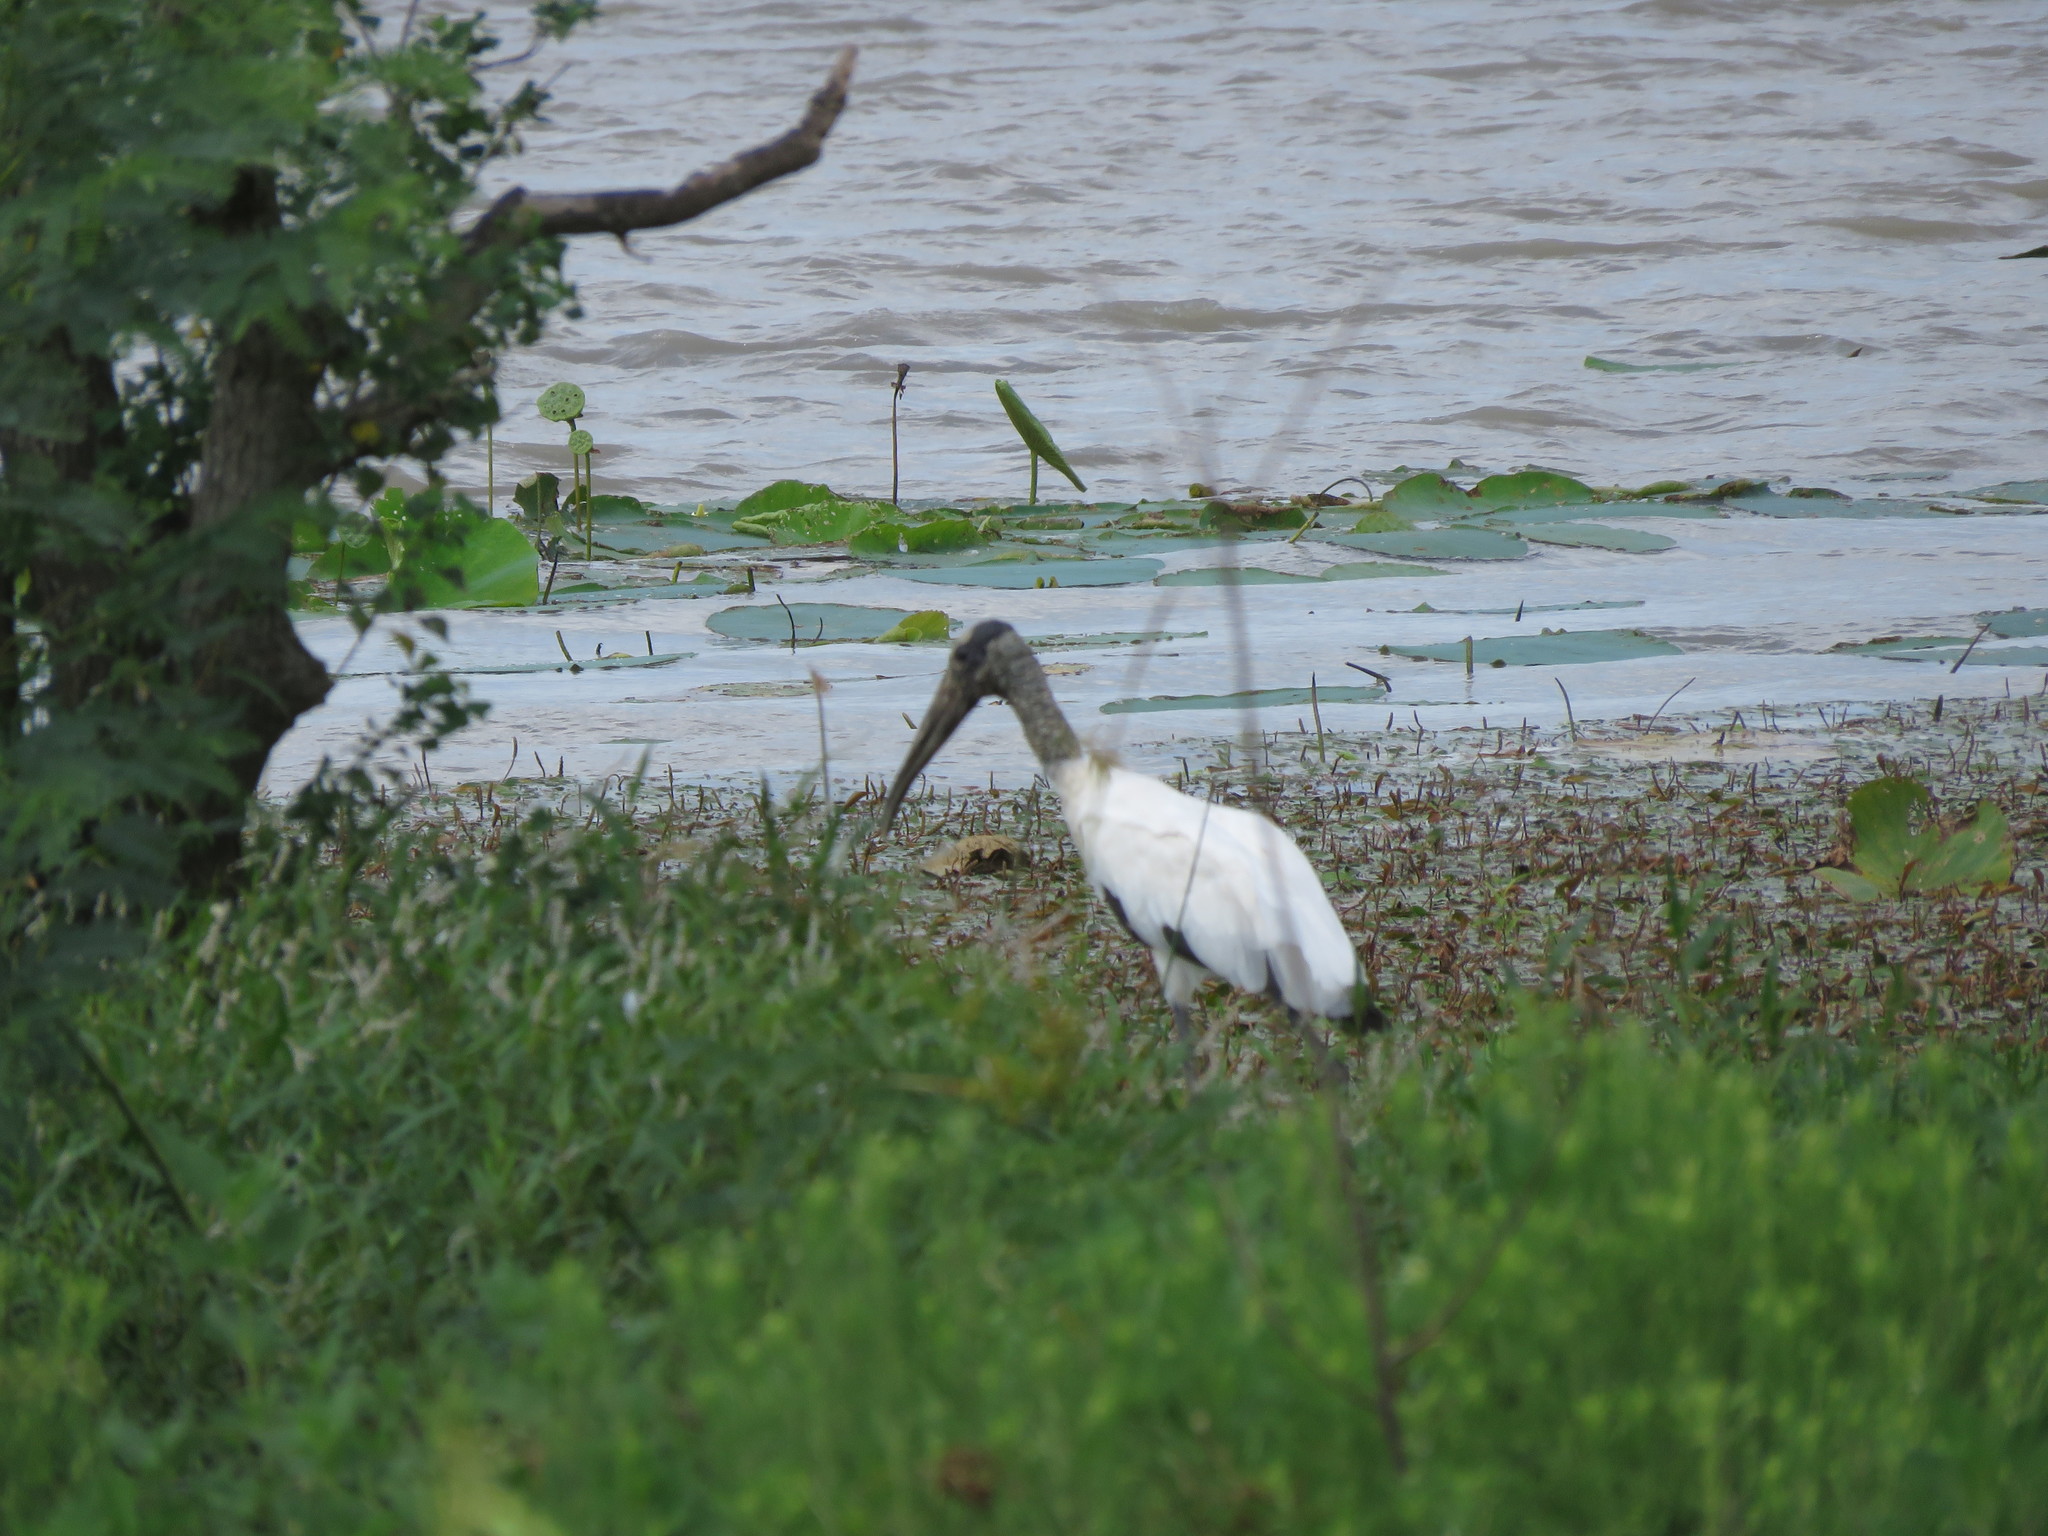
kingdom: Animalia
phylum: Chordata
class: Aves
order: Ciconiiformes
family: Ciconiidae
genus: Mycteria
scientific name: Mycteria americana
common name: Wood stork
